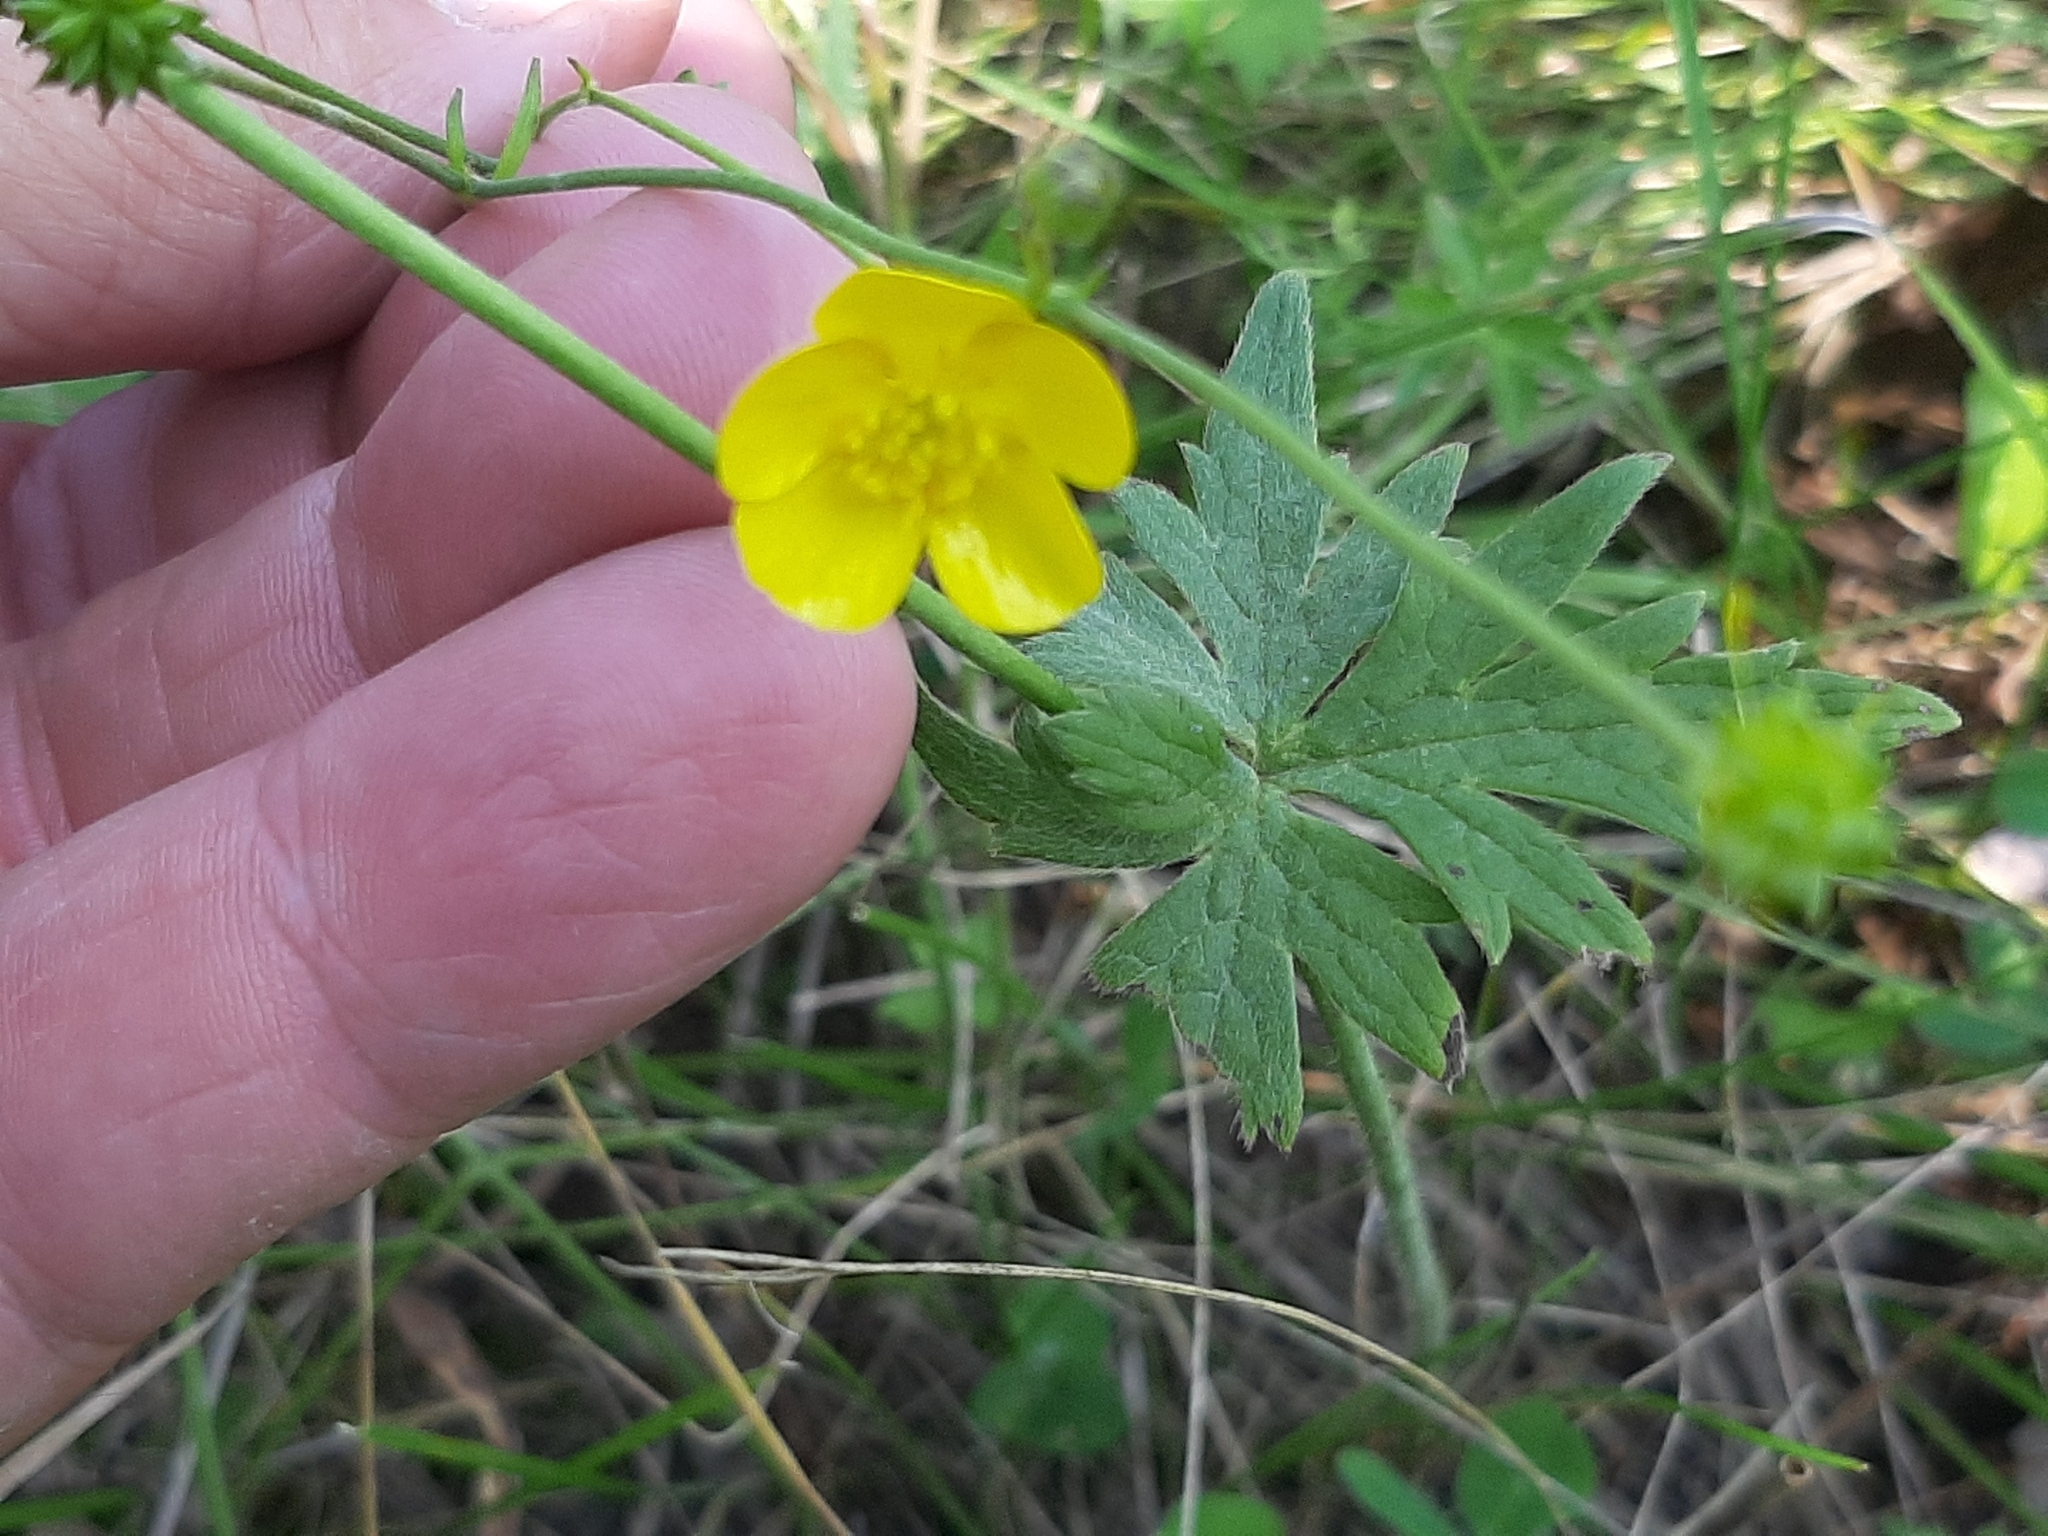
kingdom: Plantae
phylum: Tracheophyta
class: Magnoliopsida
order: Ranunculales
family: Ranunculaceae
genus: Ranunculus
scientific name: Ranunculus acris
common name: Meadow buttercup
